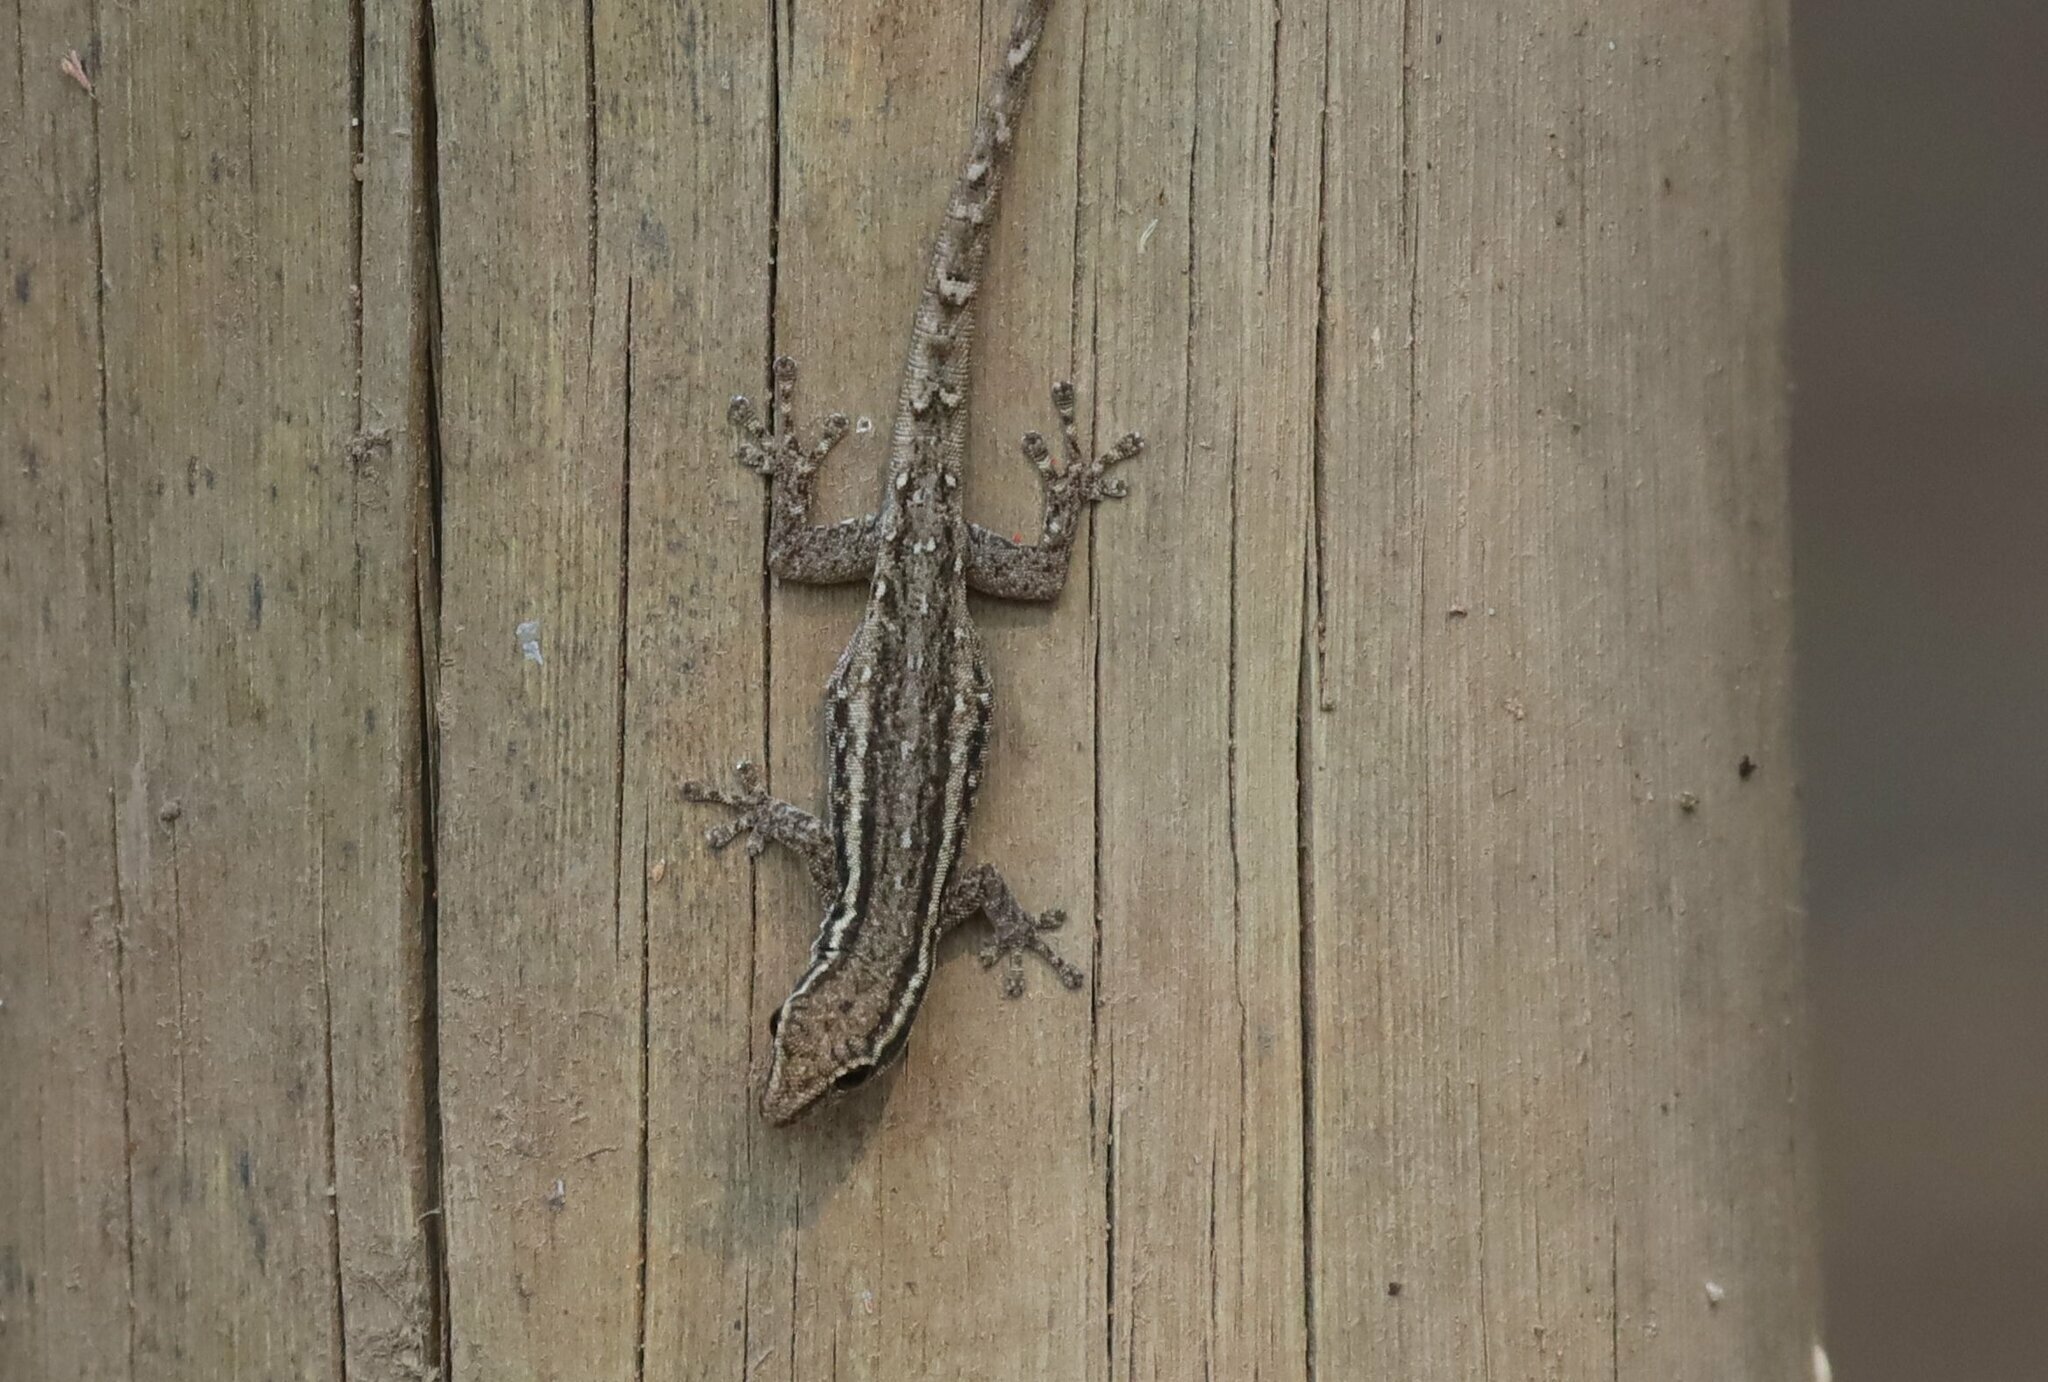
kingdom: Animalia
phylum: Chordata
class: Squamata
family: Gekkonidae
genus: Lygodactylus
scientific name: Lygodactylus capensis
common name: Cape dwarf gecko
